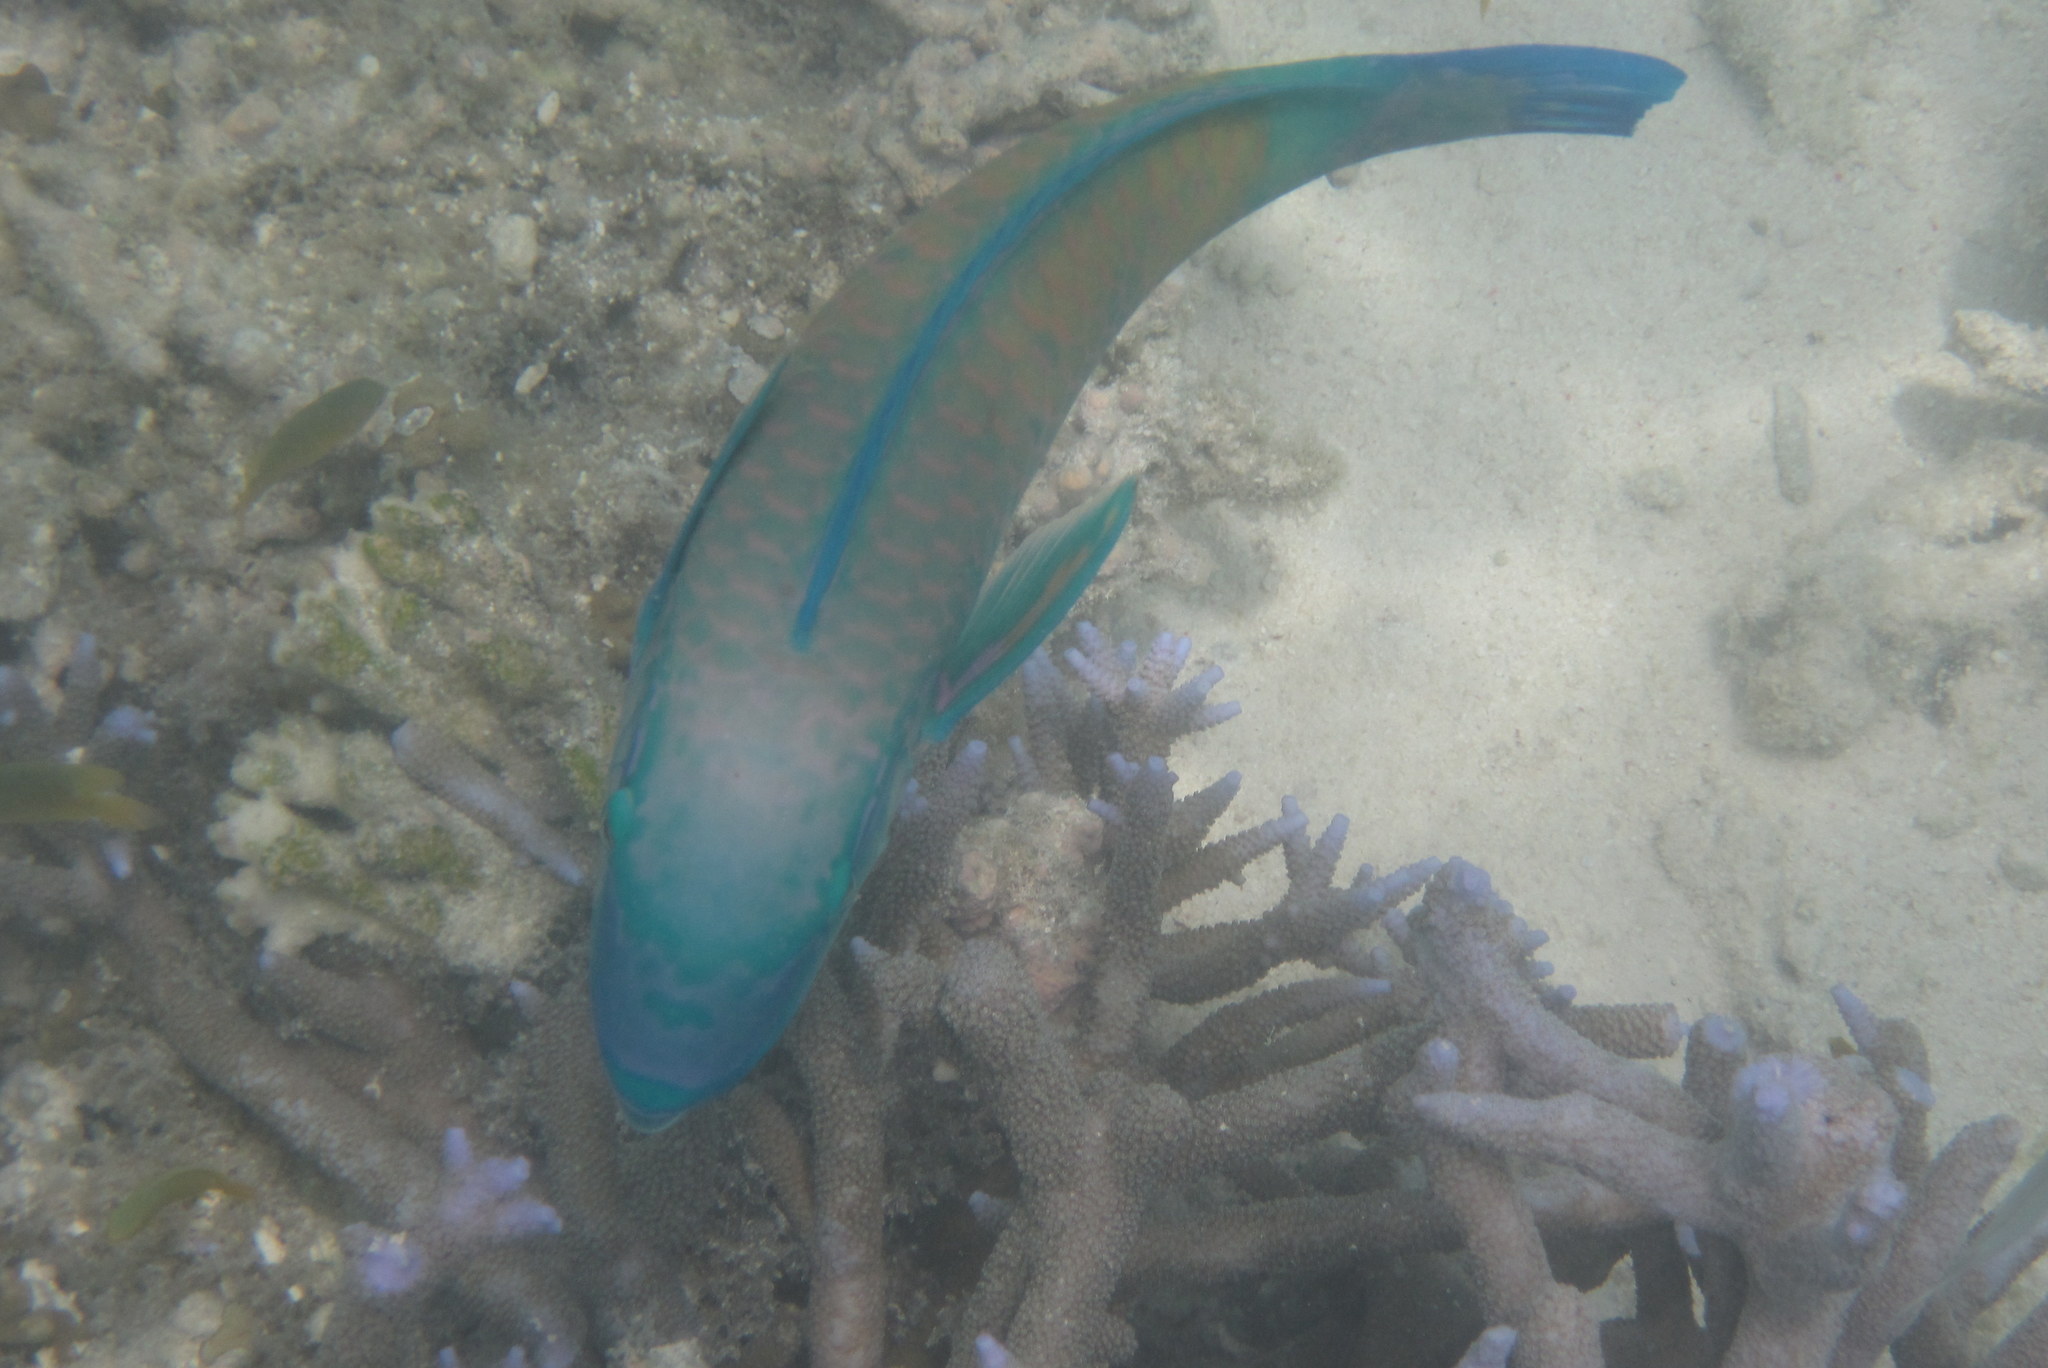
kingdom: Animalia
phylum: Chordata
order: Perciformes
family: Scaridae
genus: Scarus
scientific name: Scarus psittacus
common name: Palenose parrotfish
